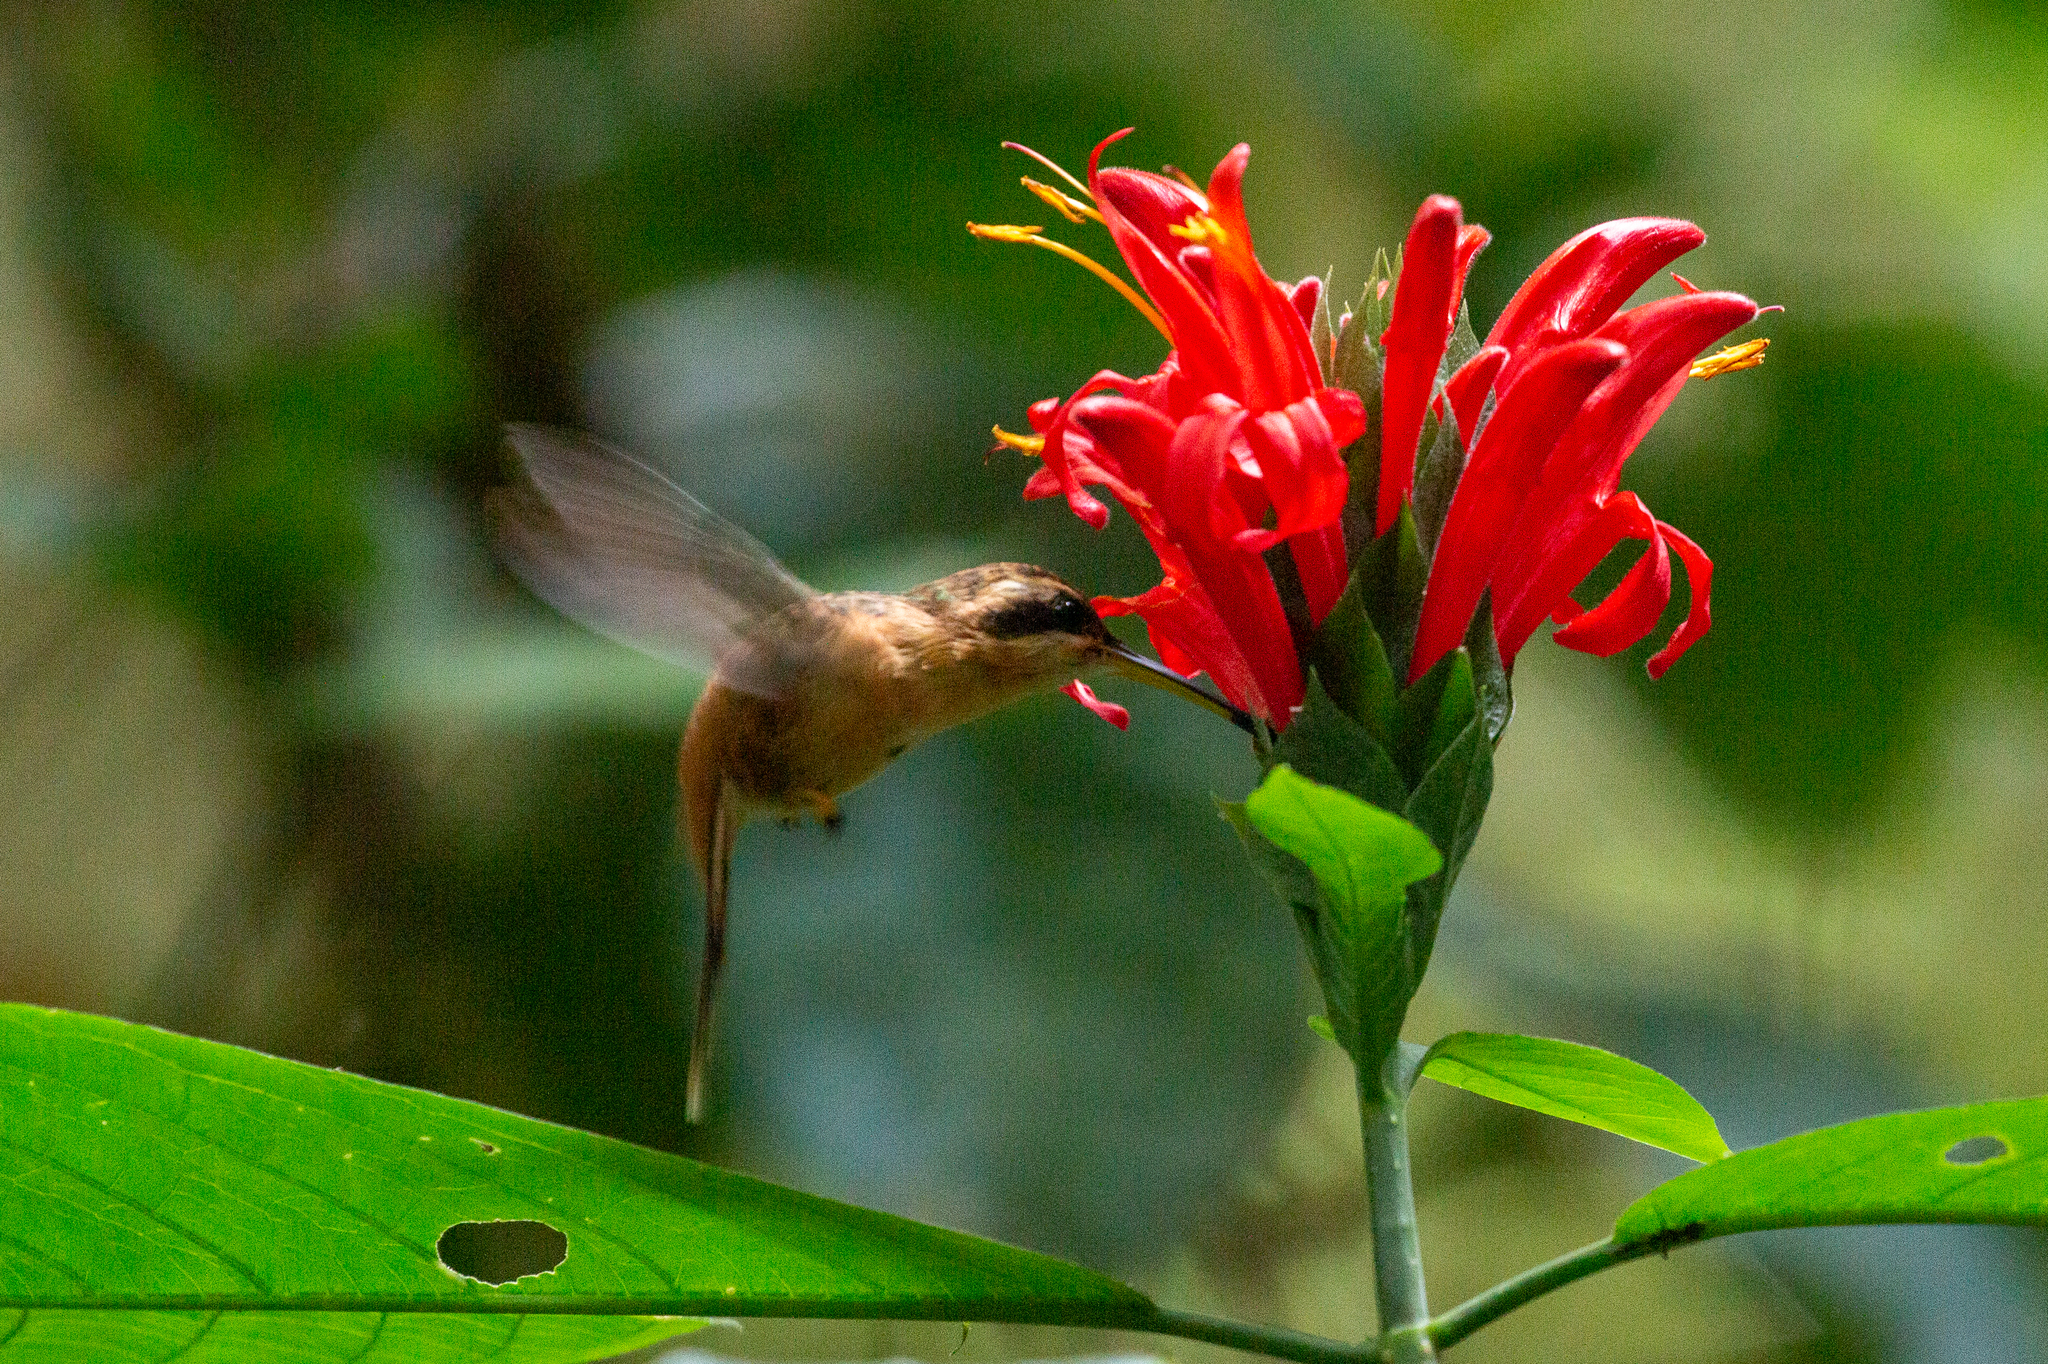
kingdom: Animalia
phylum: Chordata
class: Aves
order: Apodiformes
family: Trochilidae
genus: Phaethornis
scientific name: Phaethornis ruber
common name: Reddish hermit
